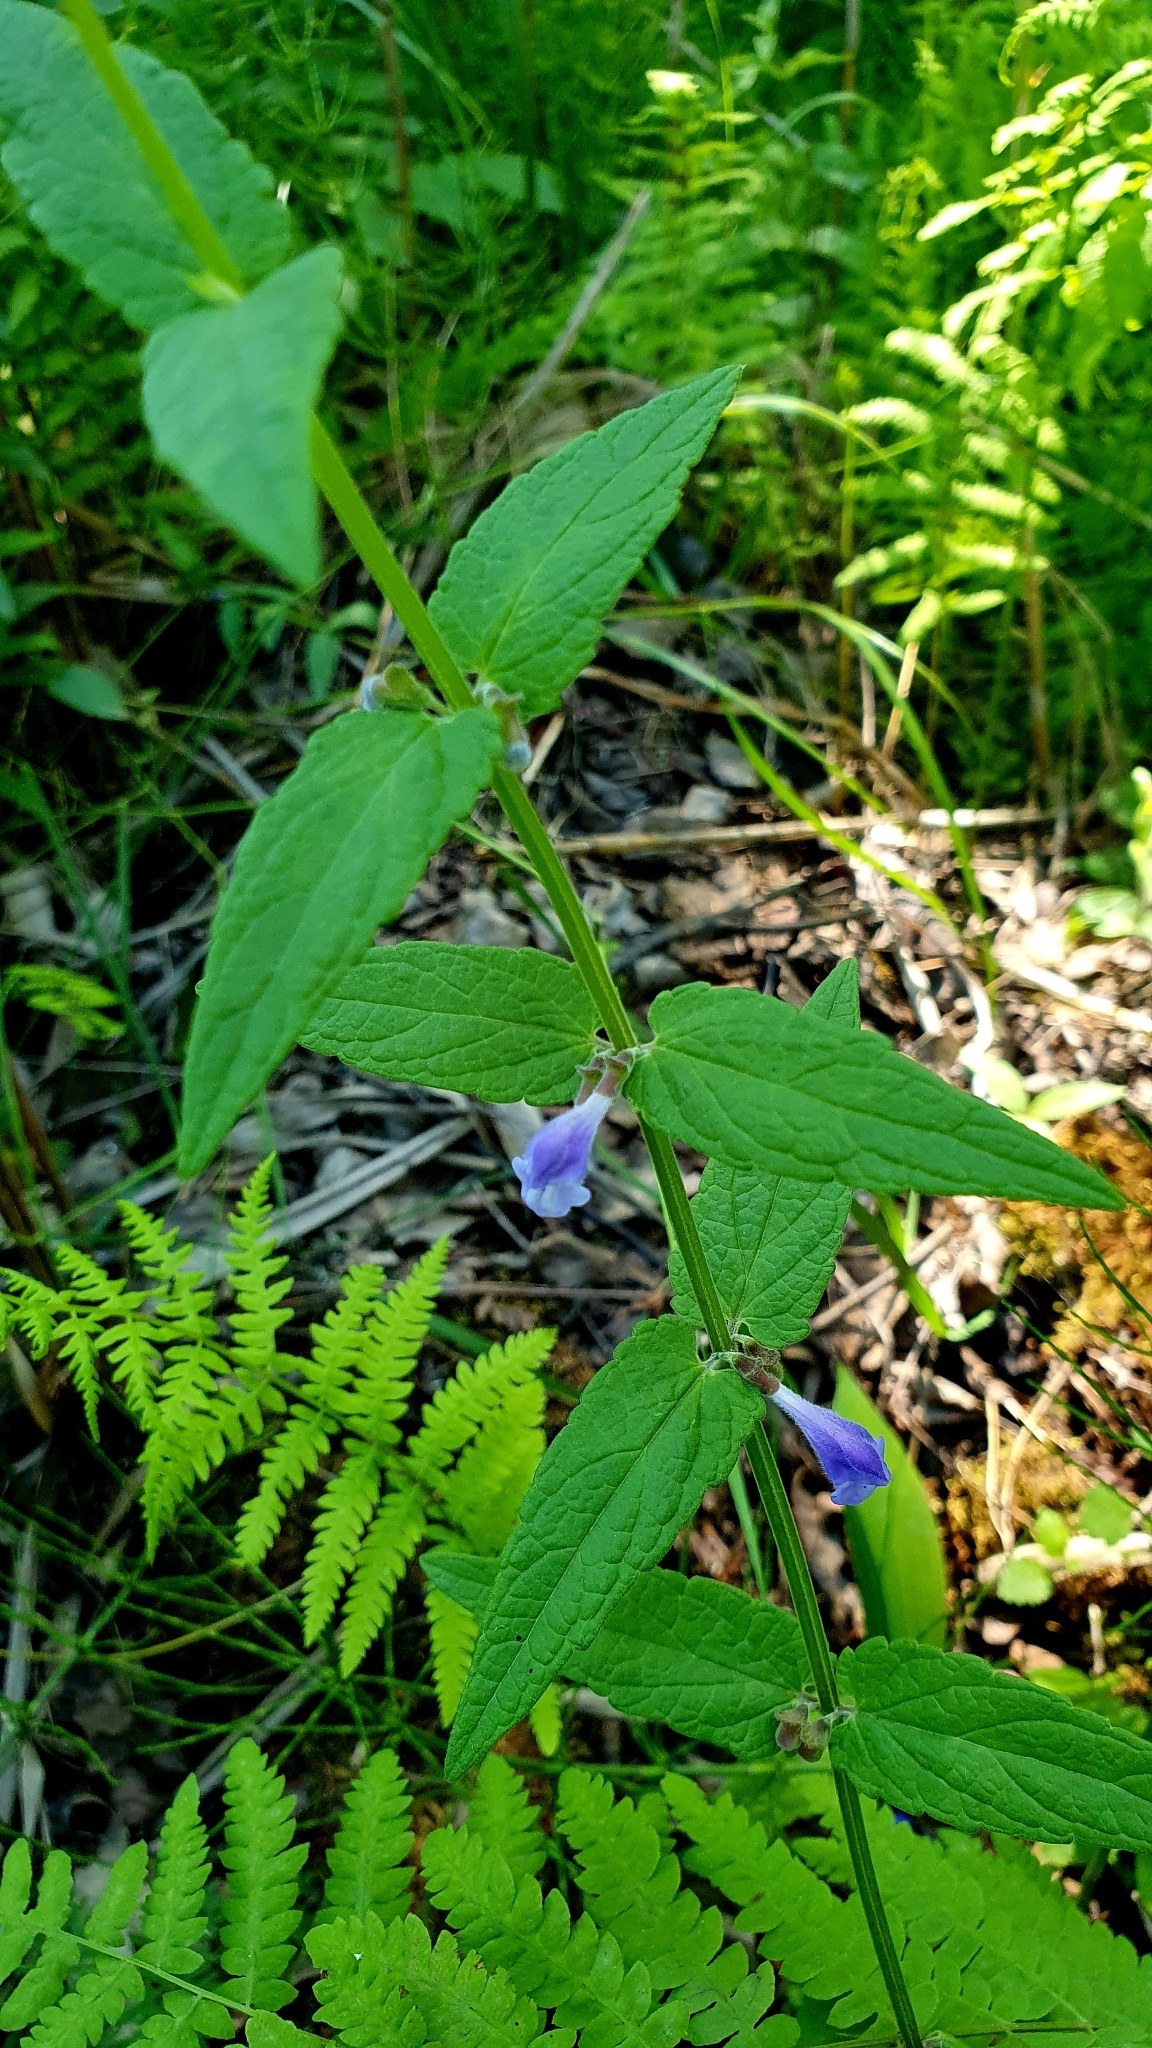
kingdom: Plantae
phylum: Tracheophyta
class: Magnoliopsida
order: Lamiales
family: Lamiaceae
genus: Scutellaria
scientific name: Scutellaria galericulata
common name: Skullcap
